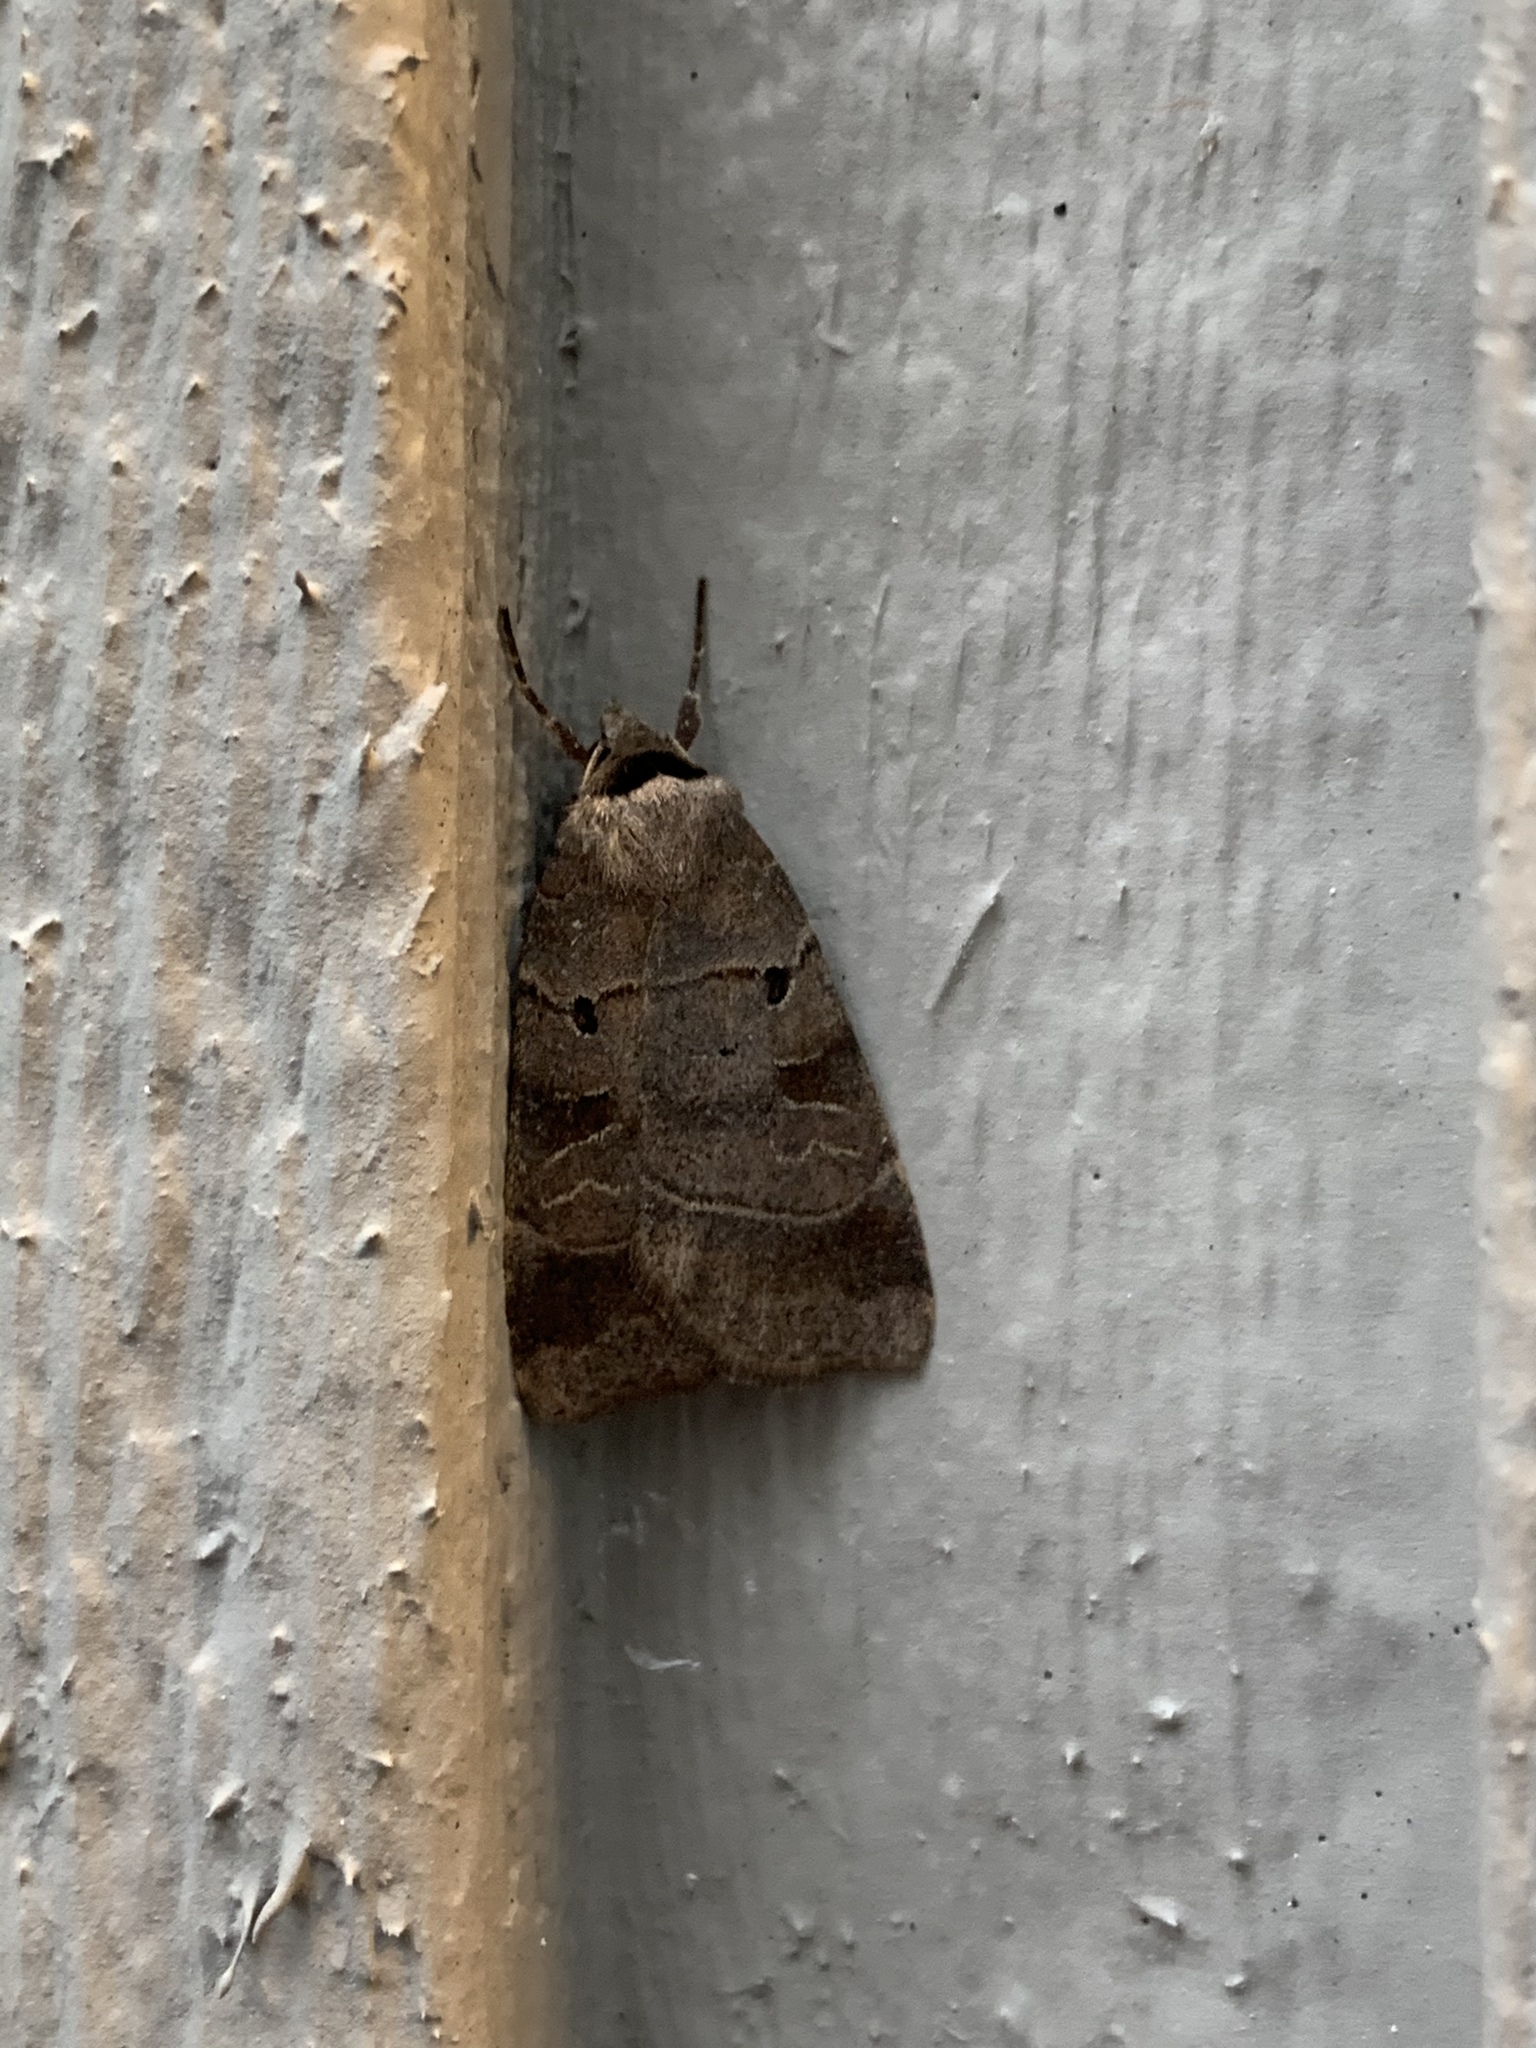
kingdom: Animalia
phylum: Arthropoda
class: Insecta
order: Lepidoptera
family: Noctuidae
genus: Agnorisma
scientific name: Agnorisma badinodis
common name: Pale-banded dart
